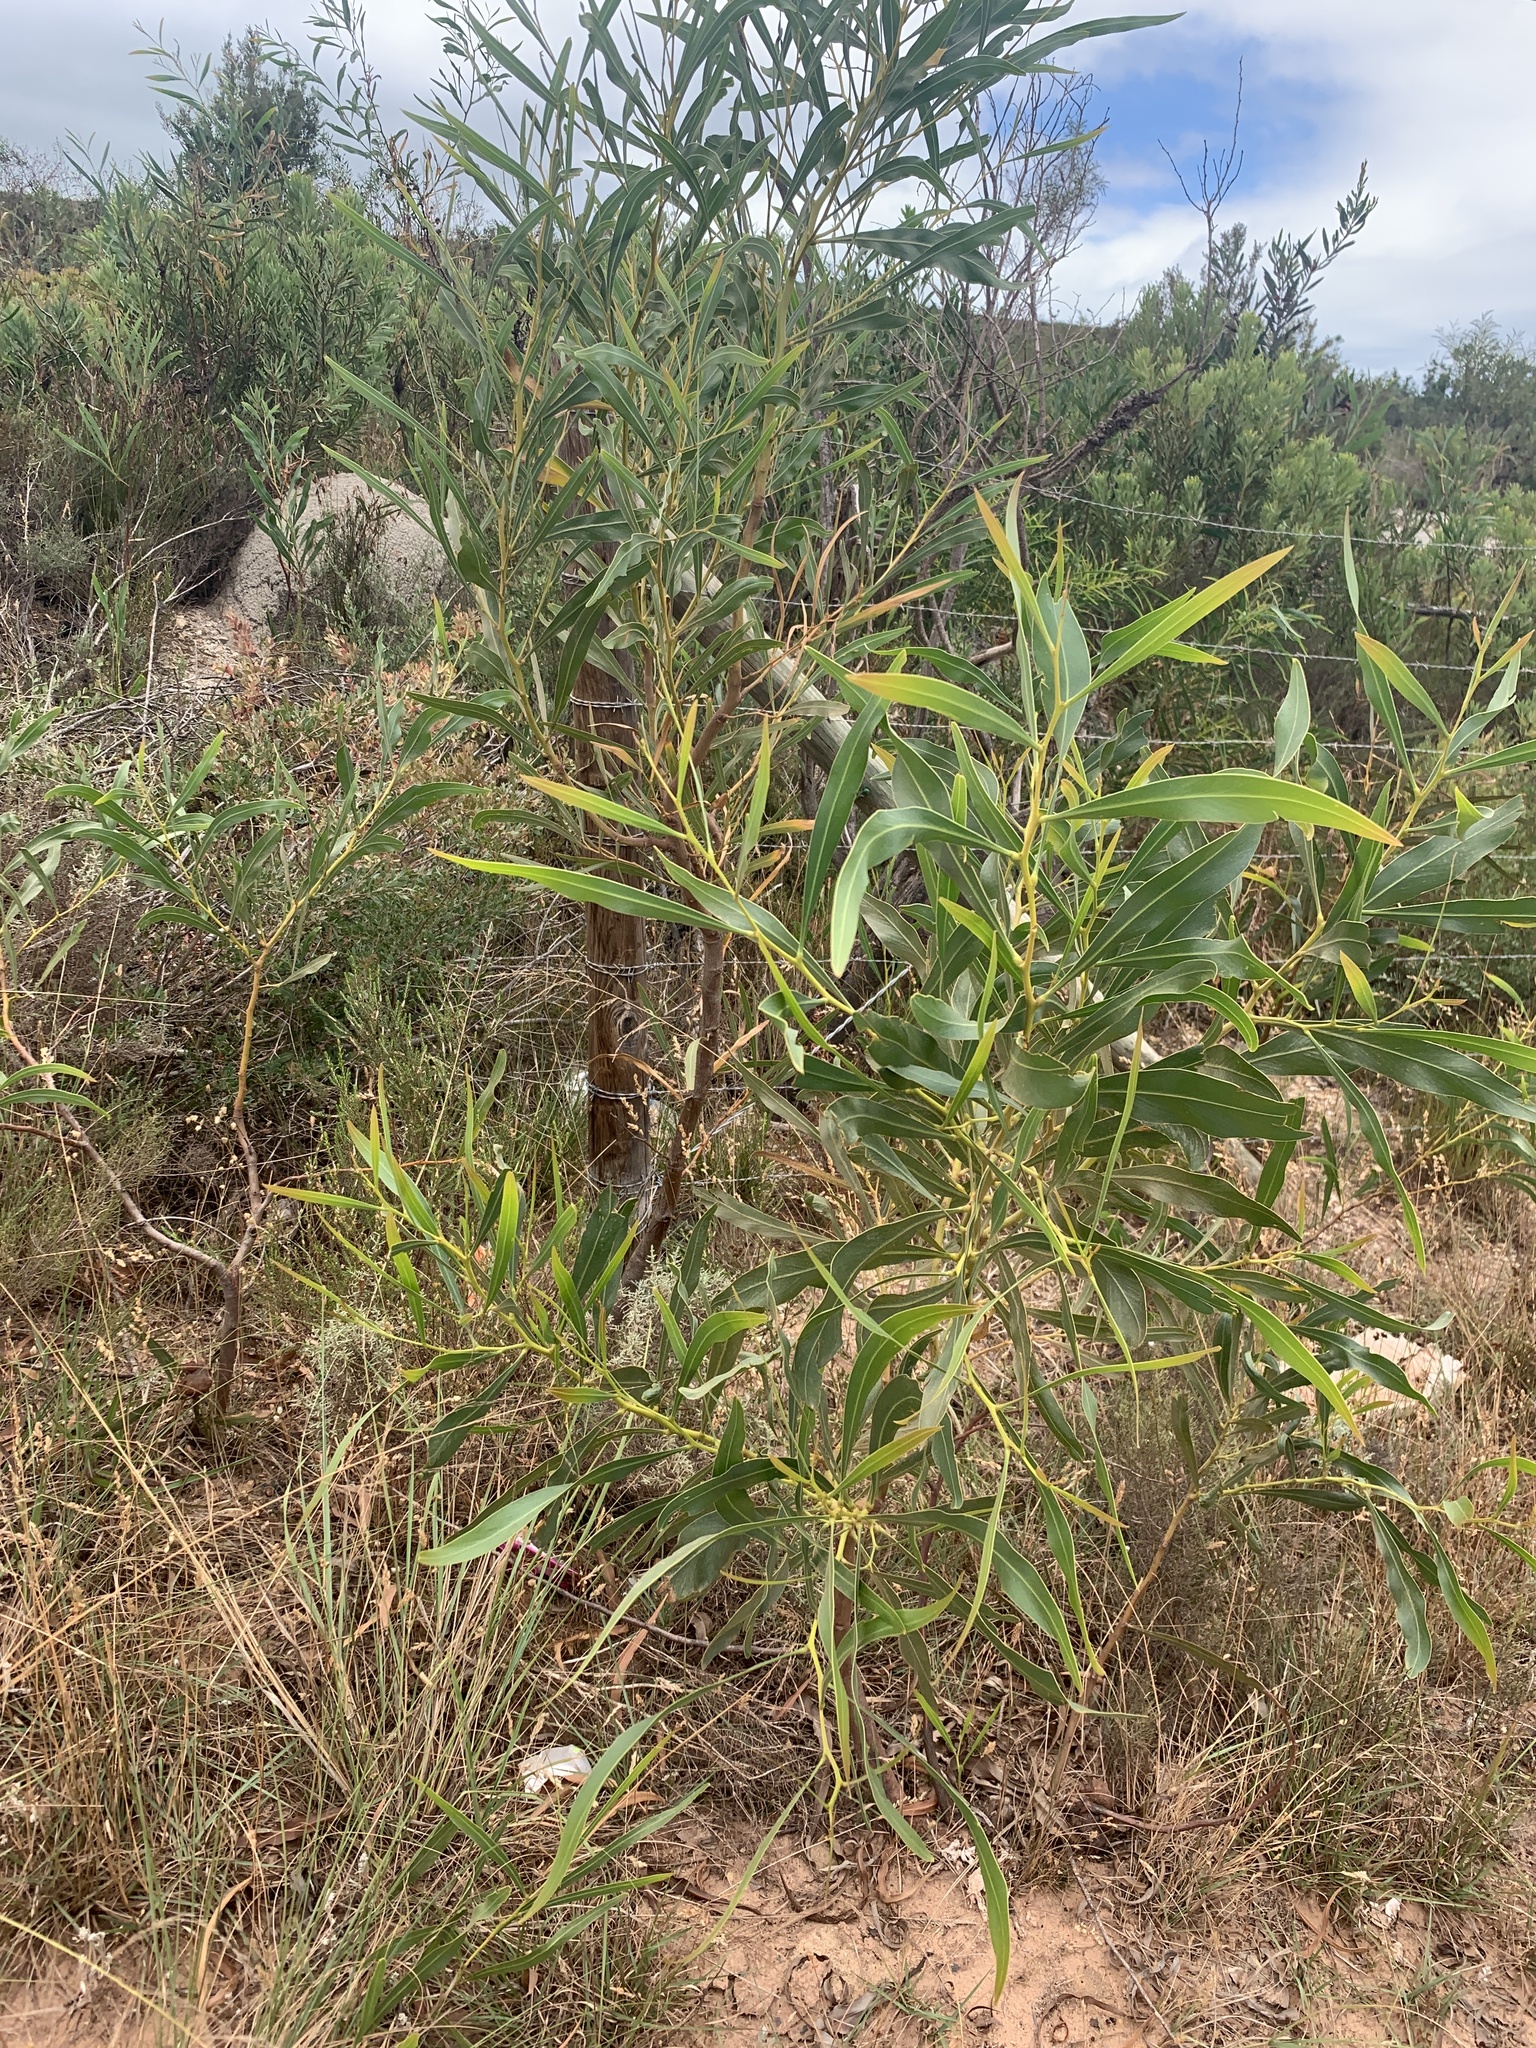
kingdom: Plantae
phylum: Tracheophyta
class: Magnoliopsida
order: Fabales
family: Fabaceae
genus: Acacia
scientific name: Acacia saligna
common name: Orange wattle
